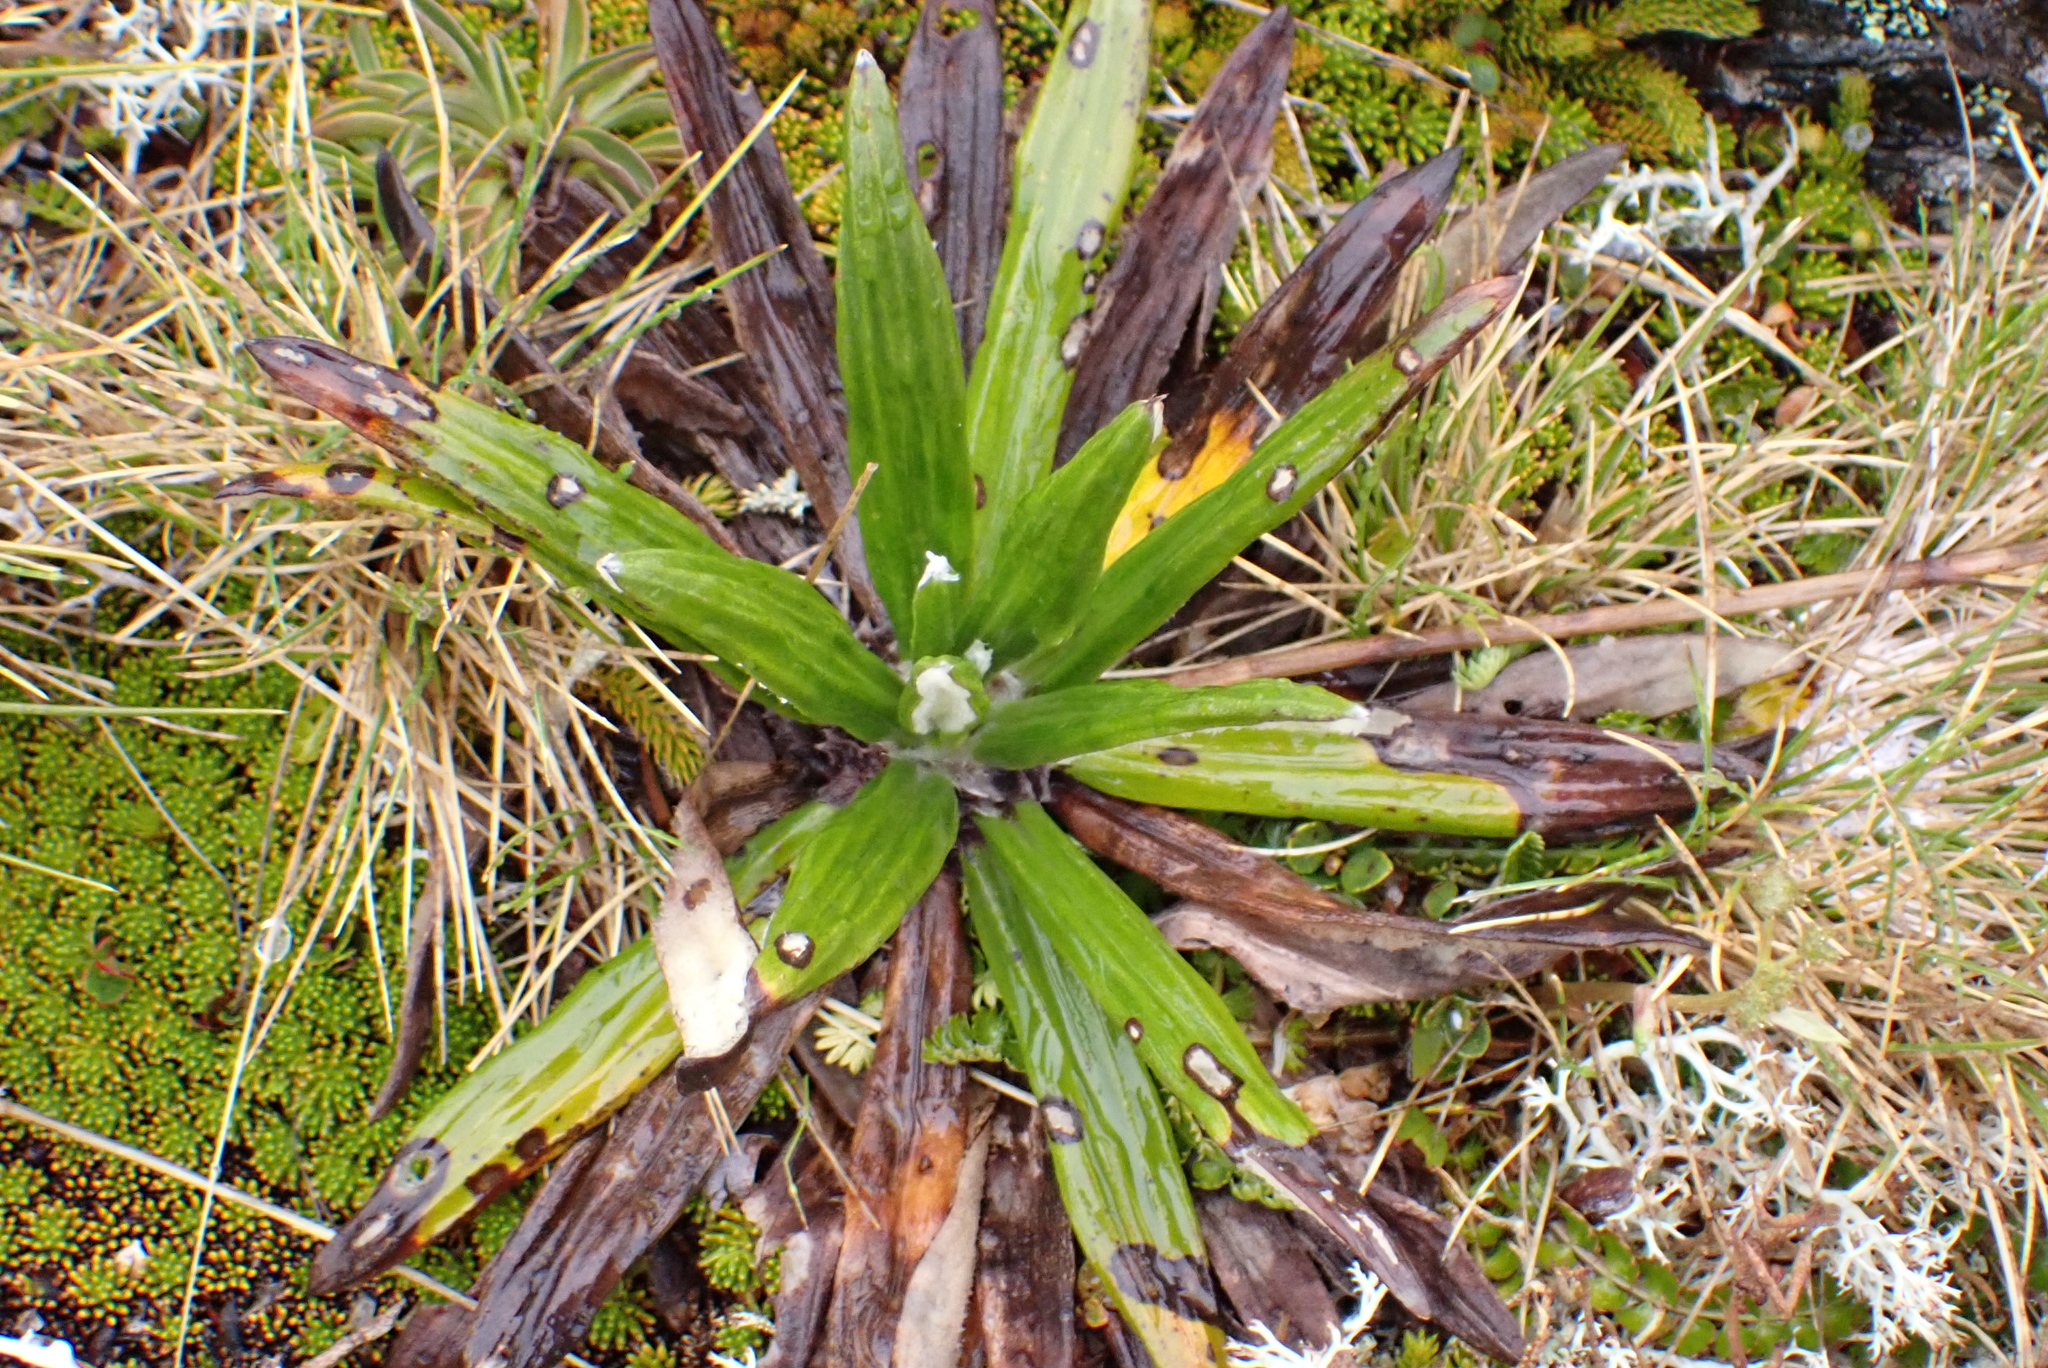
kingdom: Plantae
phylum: Tracheophyta
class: Magnoliopsida
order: Asterales
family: Asteraceae
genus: Celmisia
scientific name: Celmisia spectabilis
